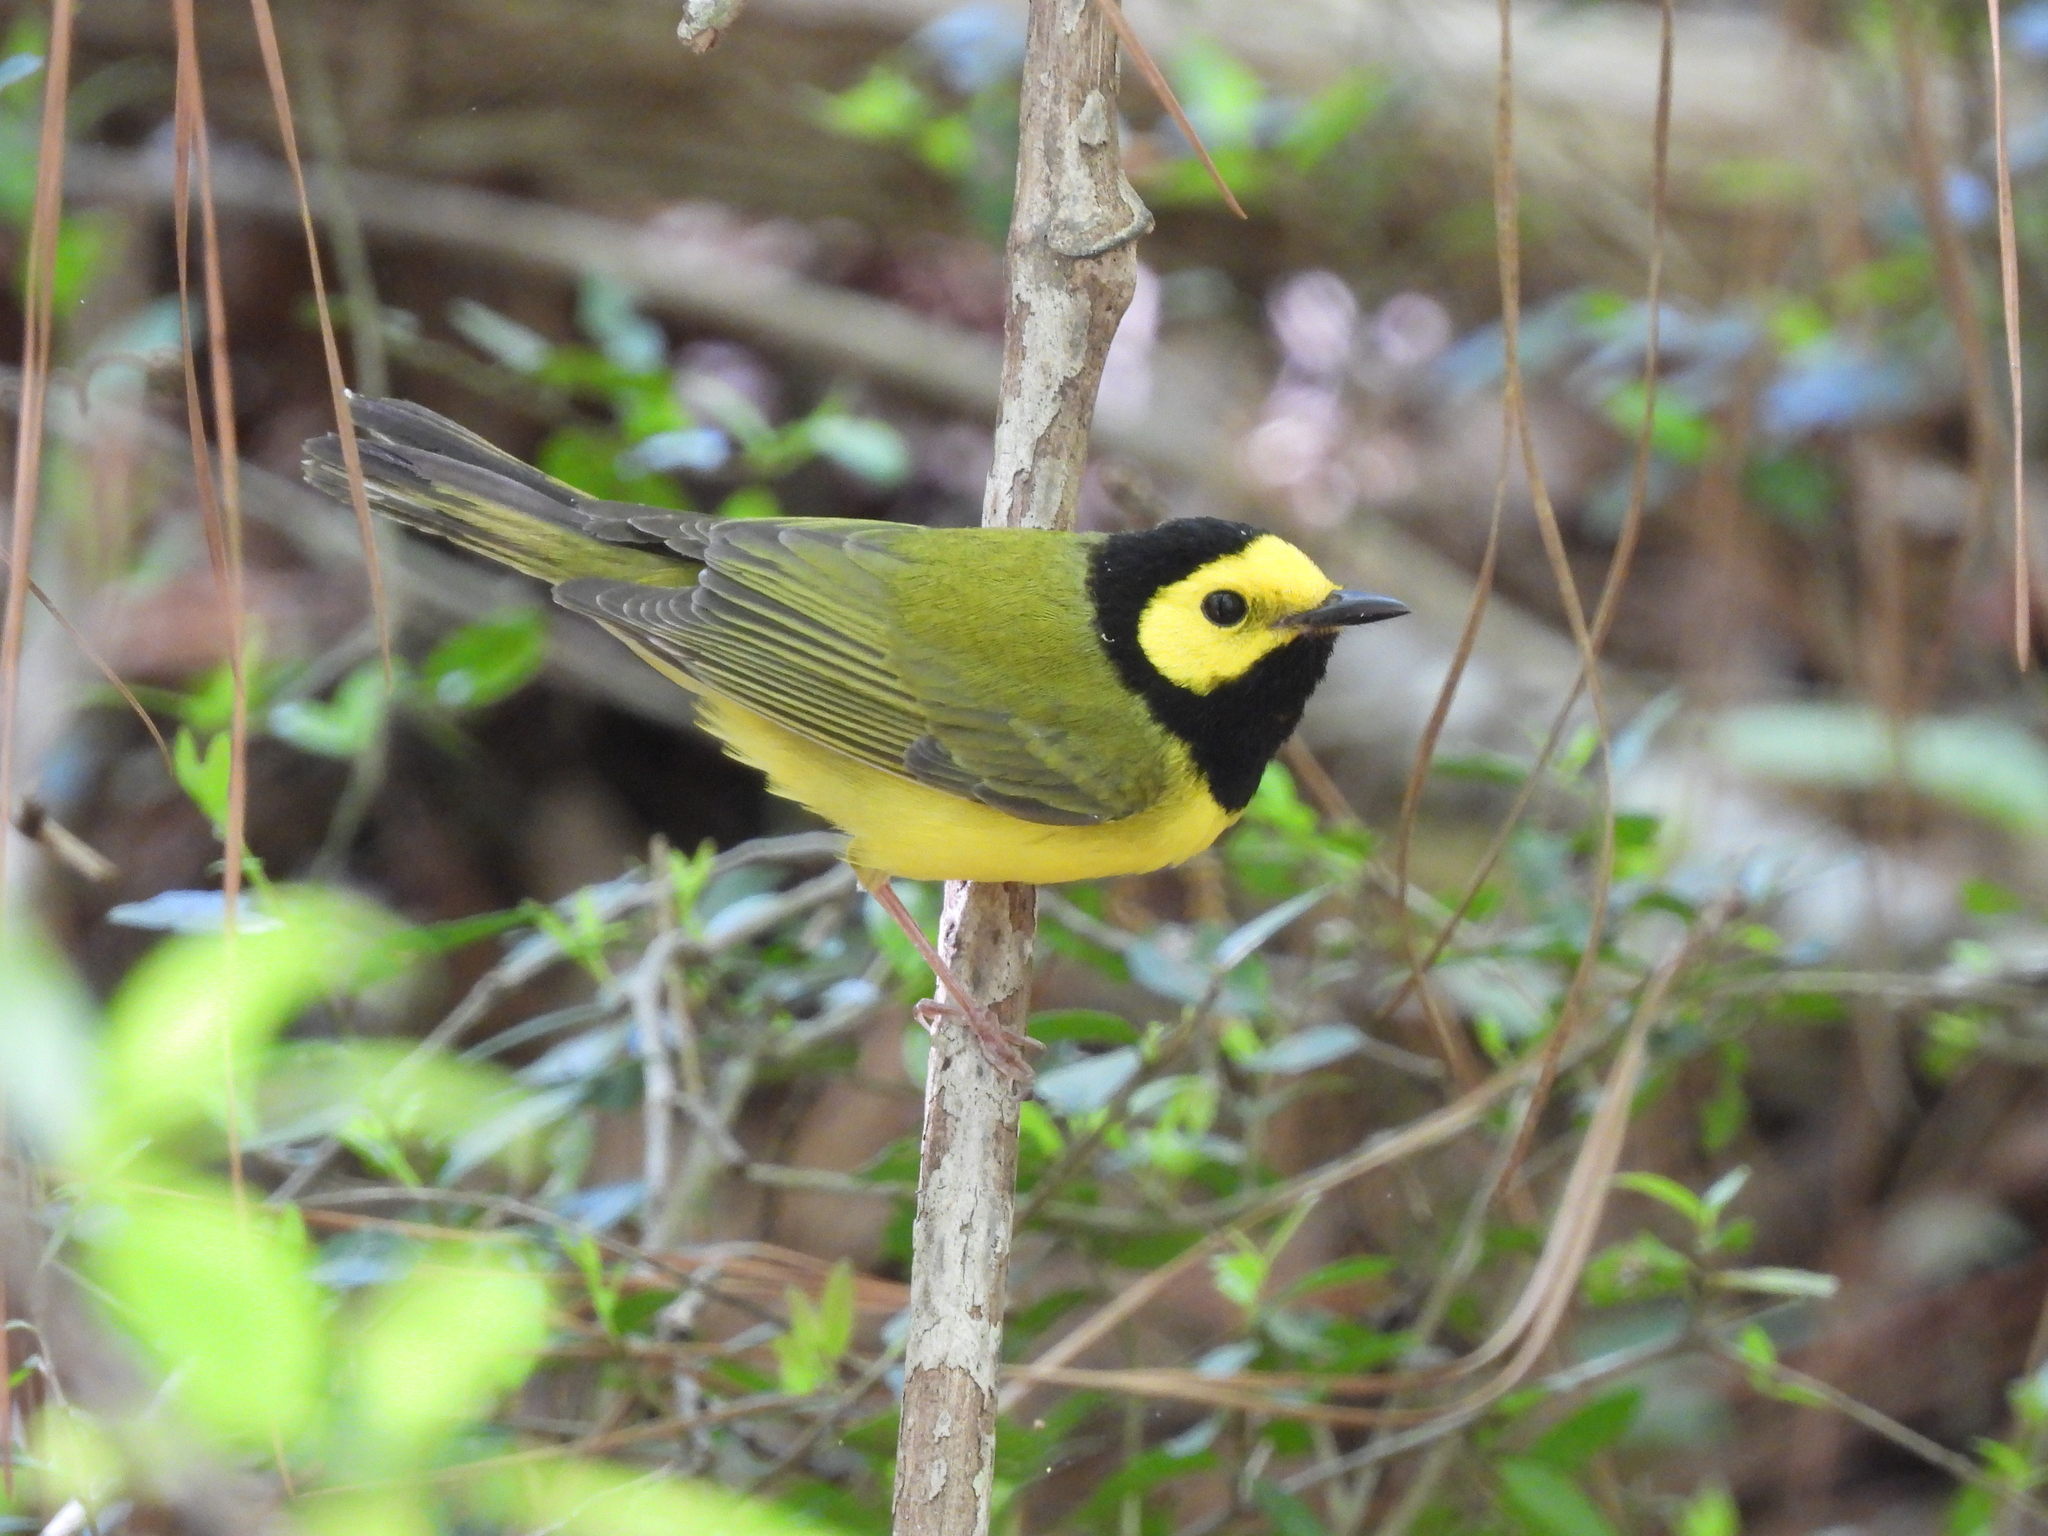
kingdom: Animalia
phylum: Chordata
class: Aves
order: Passeriformes
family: Parulidae
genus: Setophaga
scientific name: Setophaga citrina
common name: Hooded warbler
